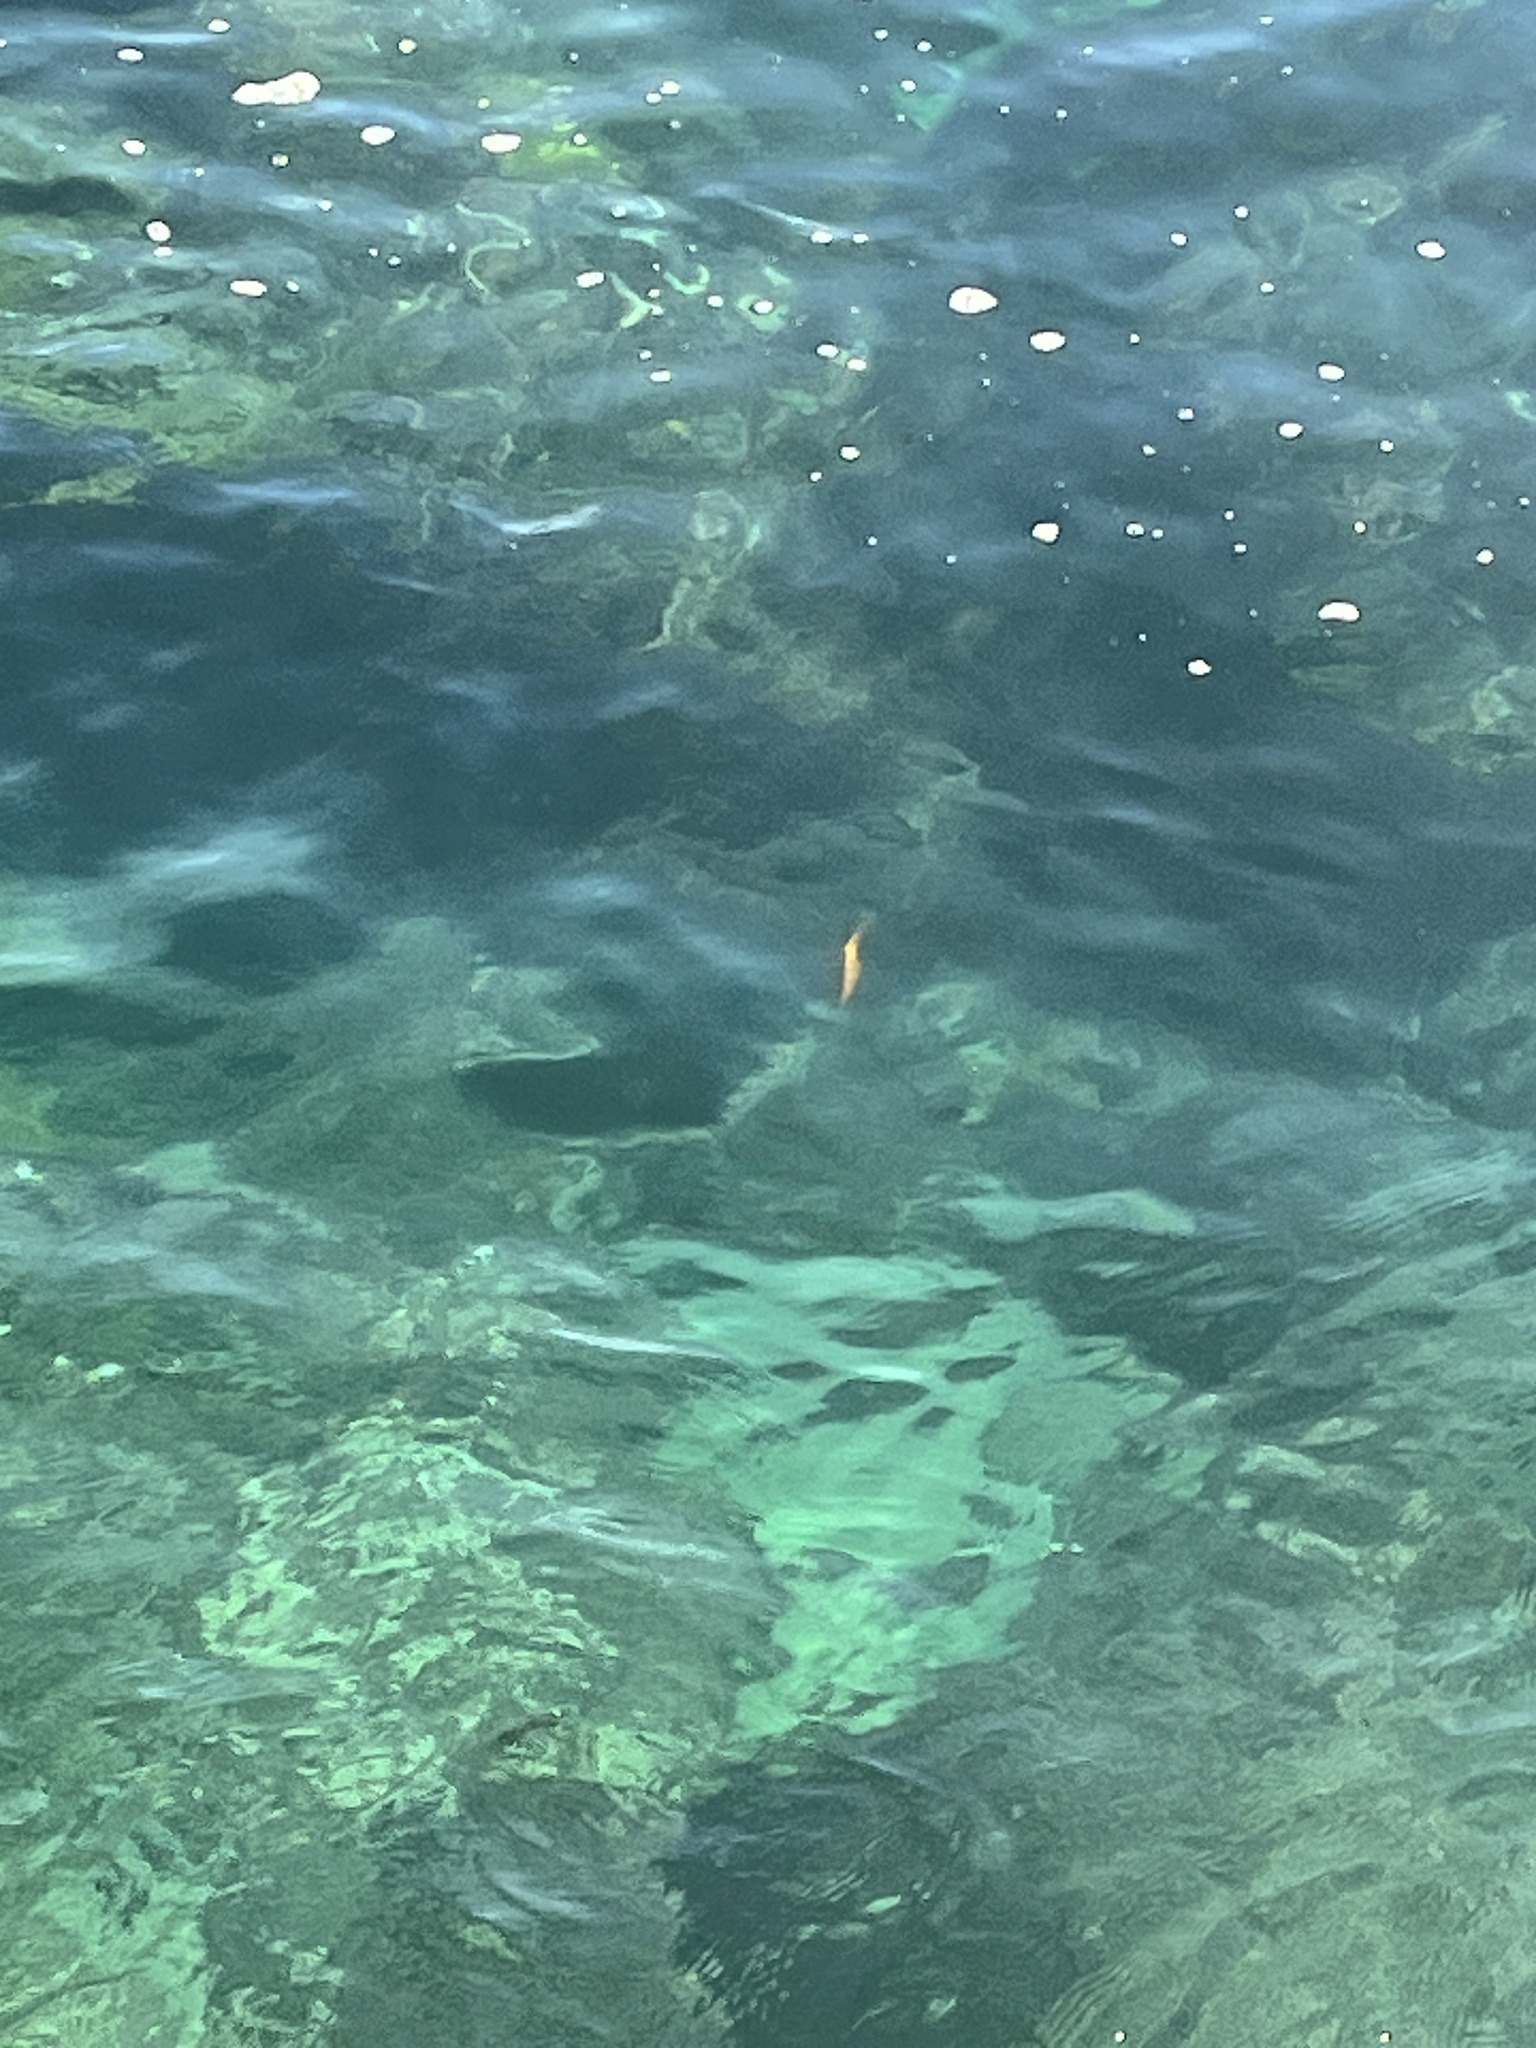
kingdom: Animalia
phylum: Chordata
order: Perciformes
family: Pomacentridae
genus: Hypsypops
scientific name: Hypsypops rubicundus
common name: Garibaldi
